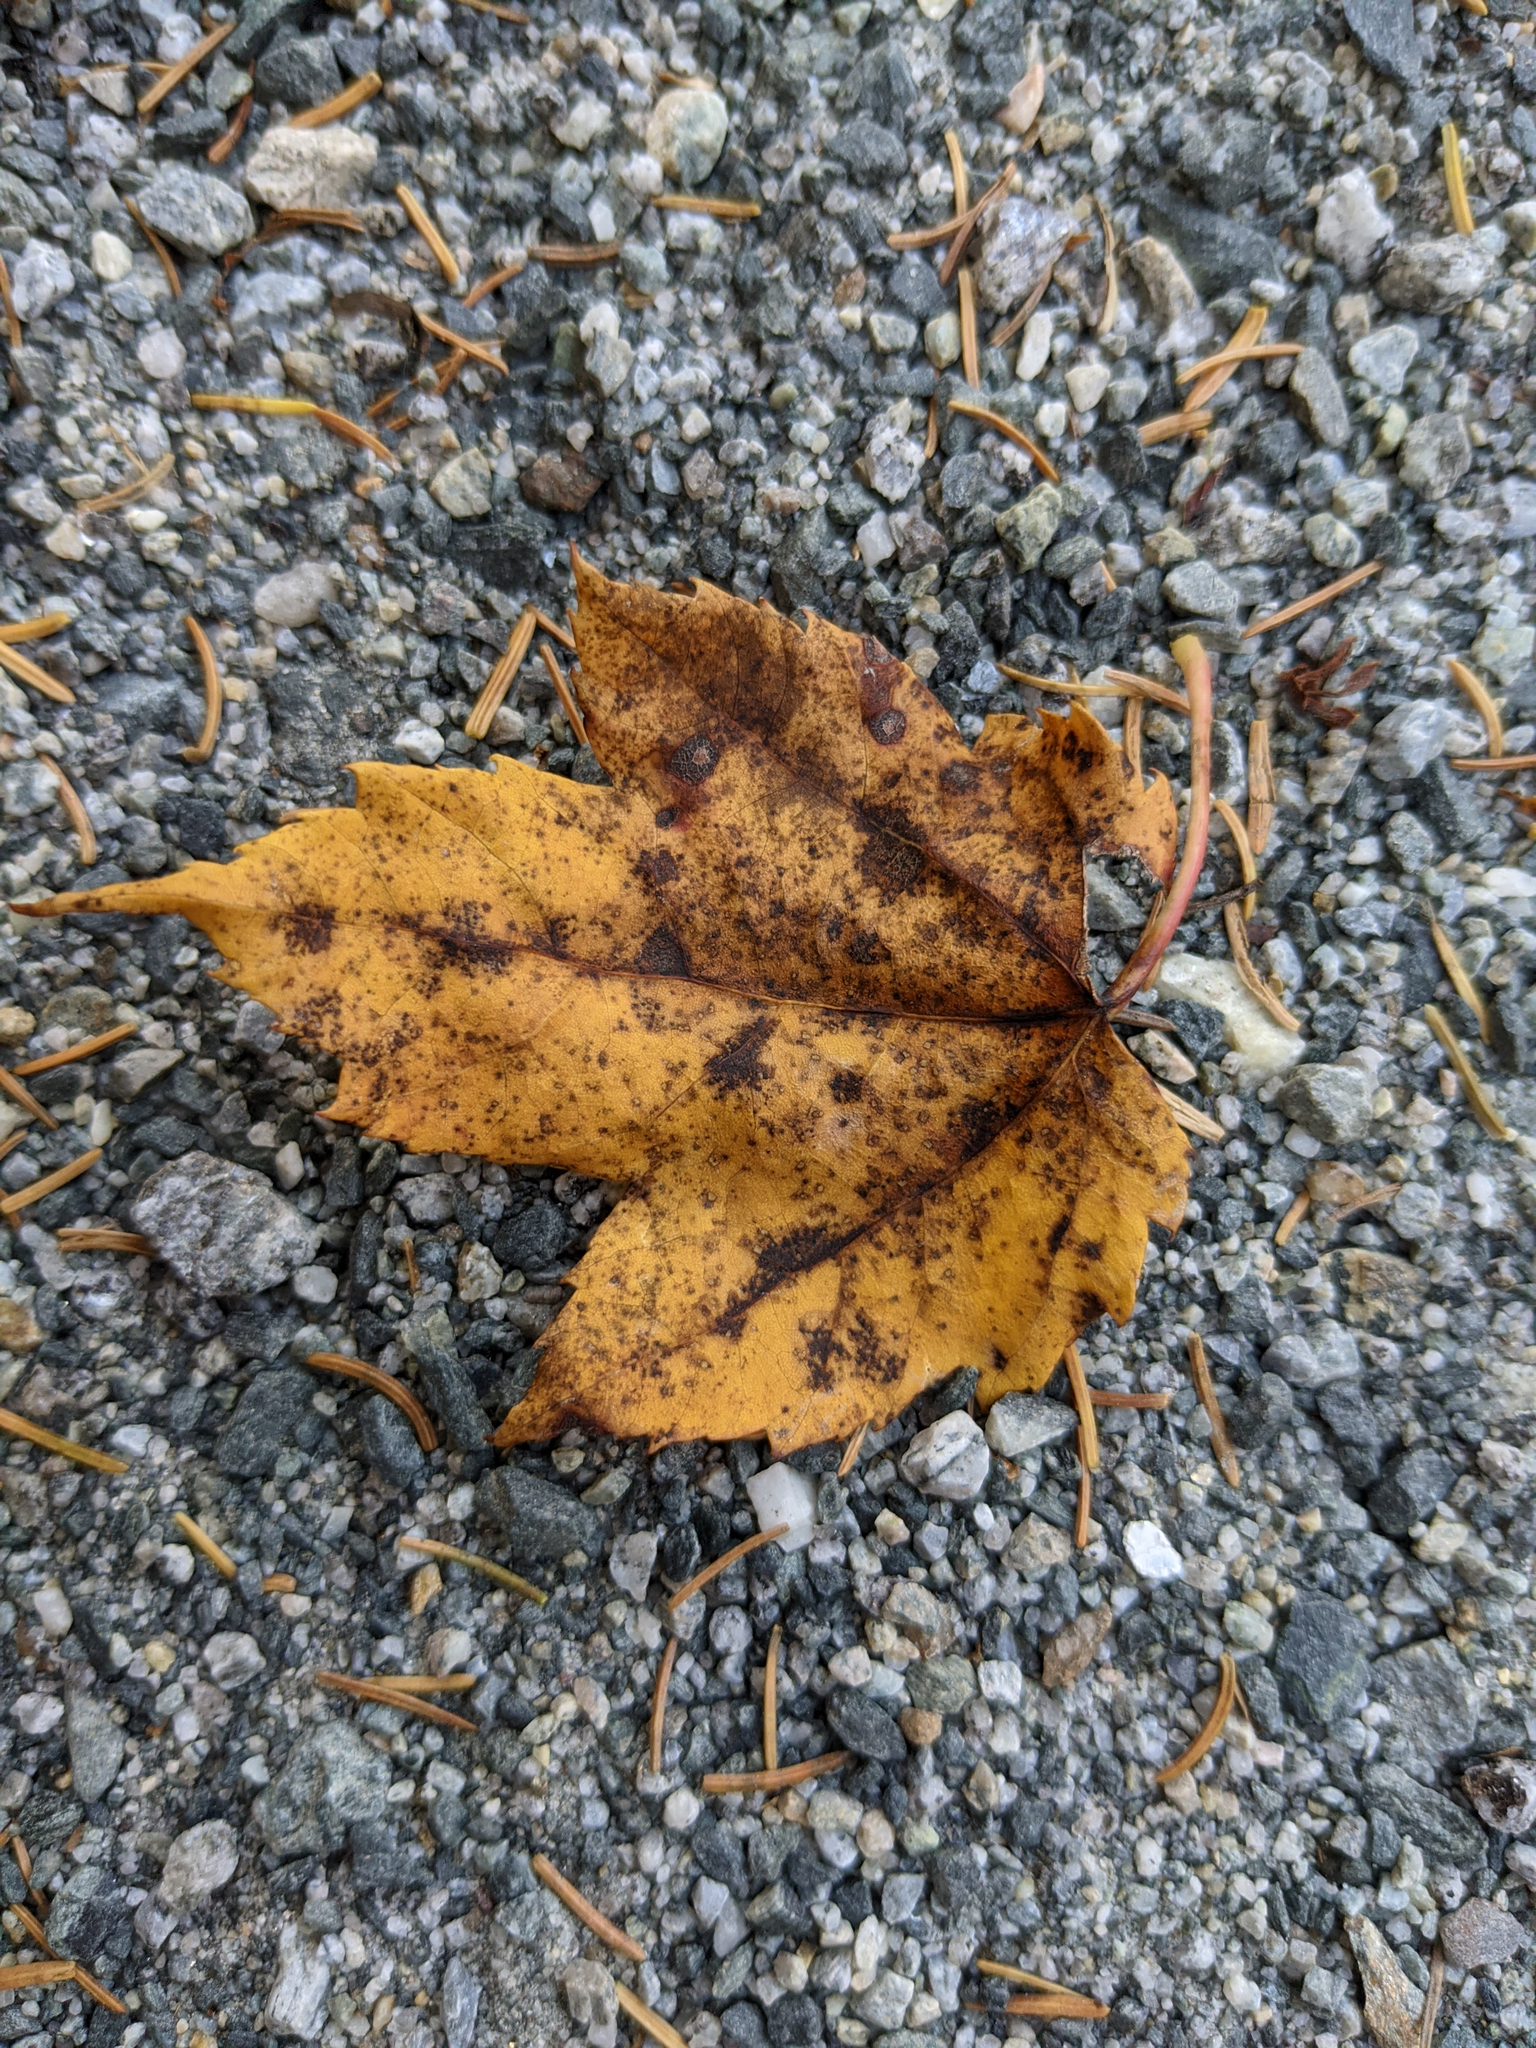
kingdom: Plantae
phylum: Tracheophyta
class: Magnoliopsida
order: Sapindales
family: Sapindaceae
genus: Acer
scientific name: Acer rubrum
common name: Red maple
